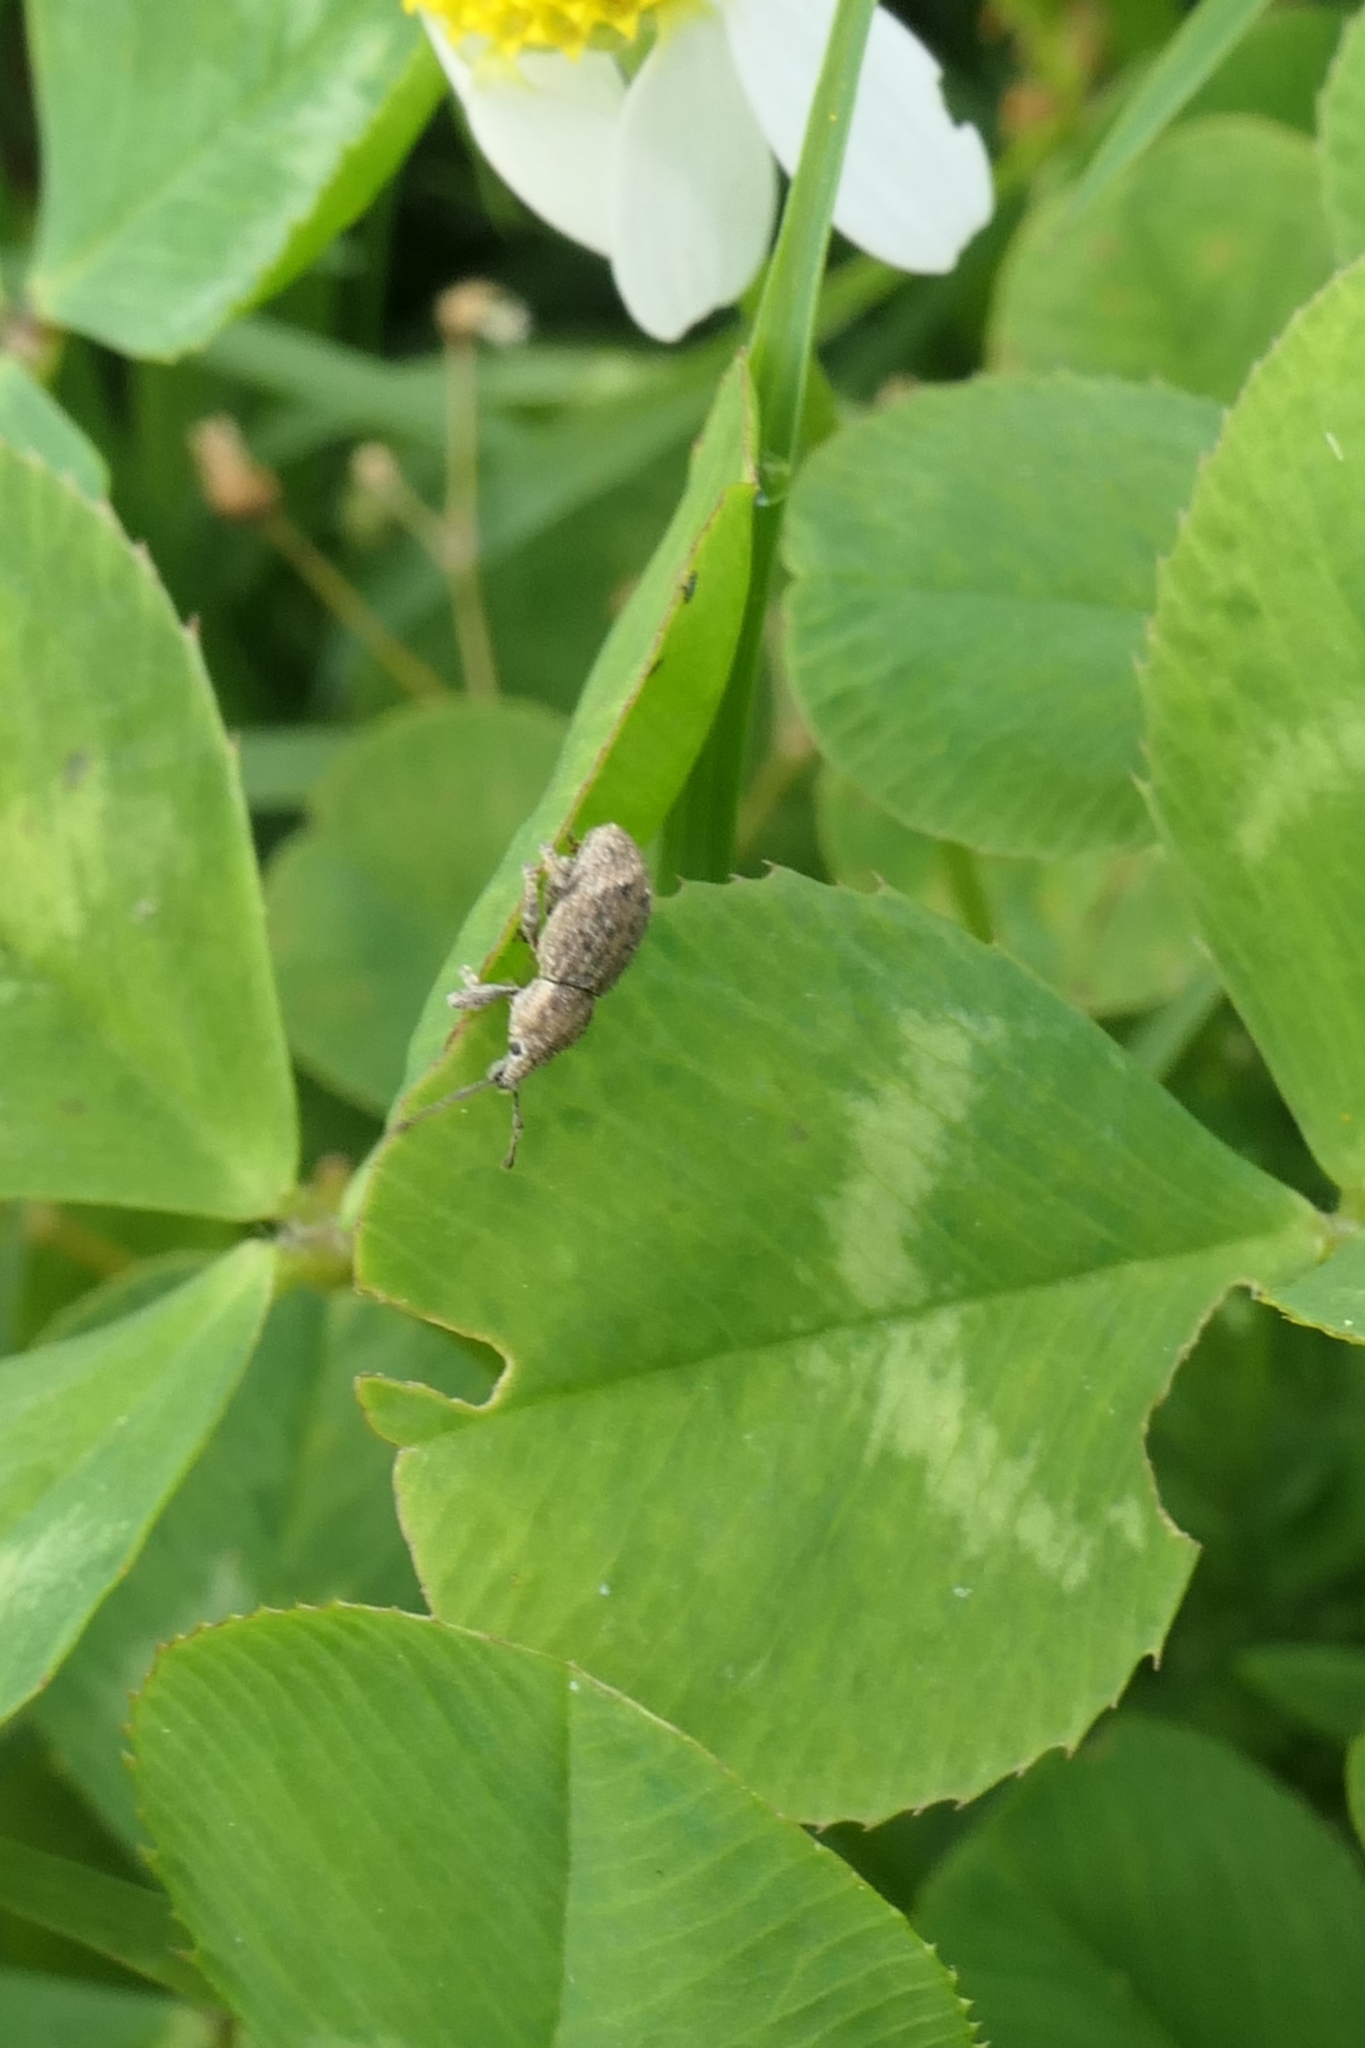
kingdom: Animalia
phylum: Arthropoda
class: Insecta
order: Coleoptera
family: Curculionidae
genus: Chalepistes
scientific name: Chalepistes aequalis
